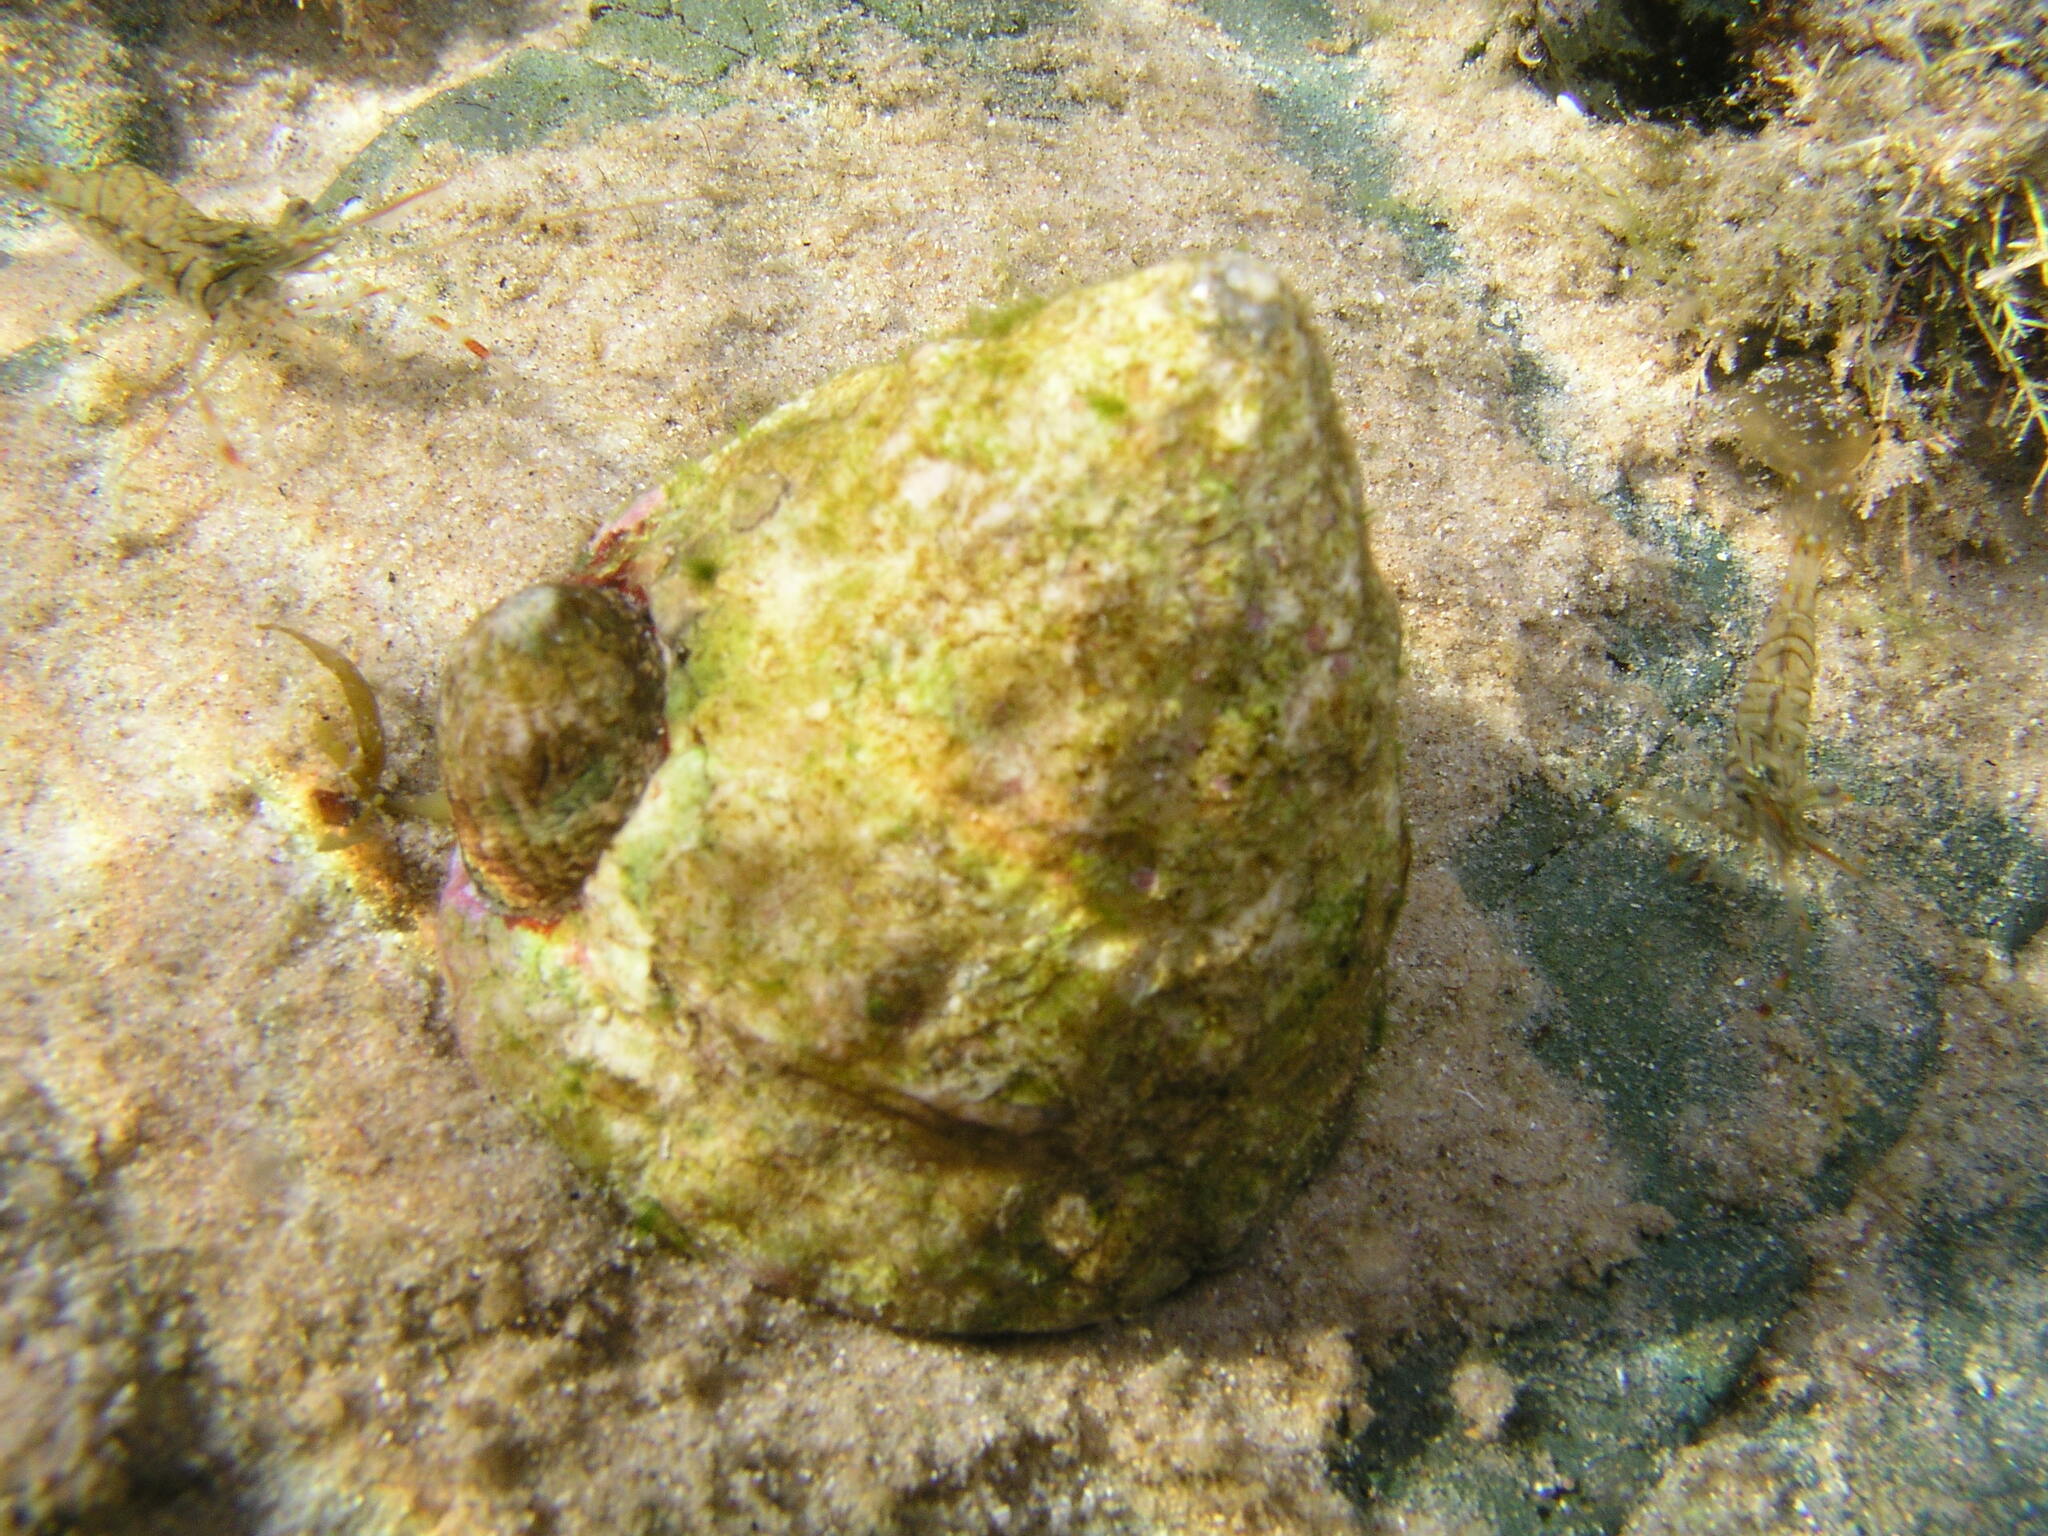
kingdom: Animalia
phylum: Mollusca
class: Gastropoda
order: Littorinimorpha
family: Hipponicidae
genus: Sabia
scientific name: Sabia conica
